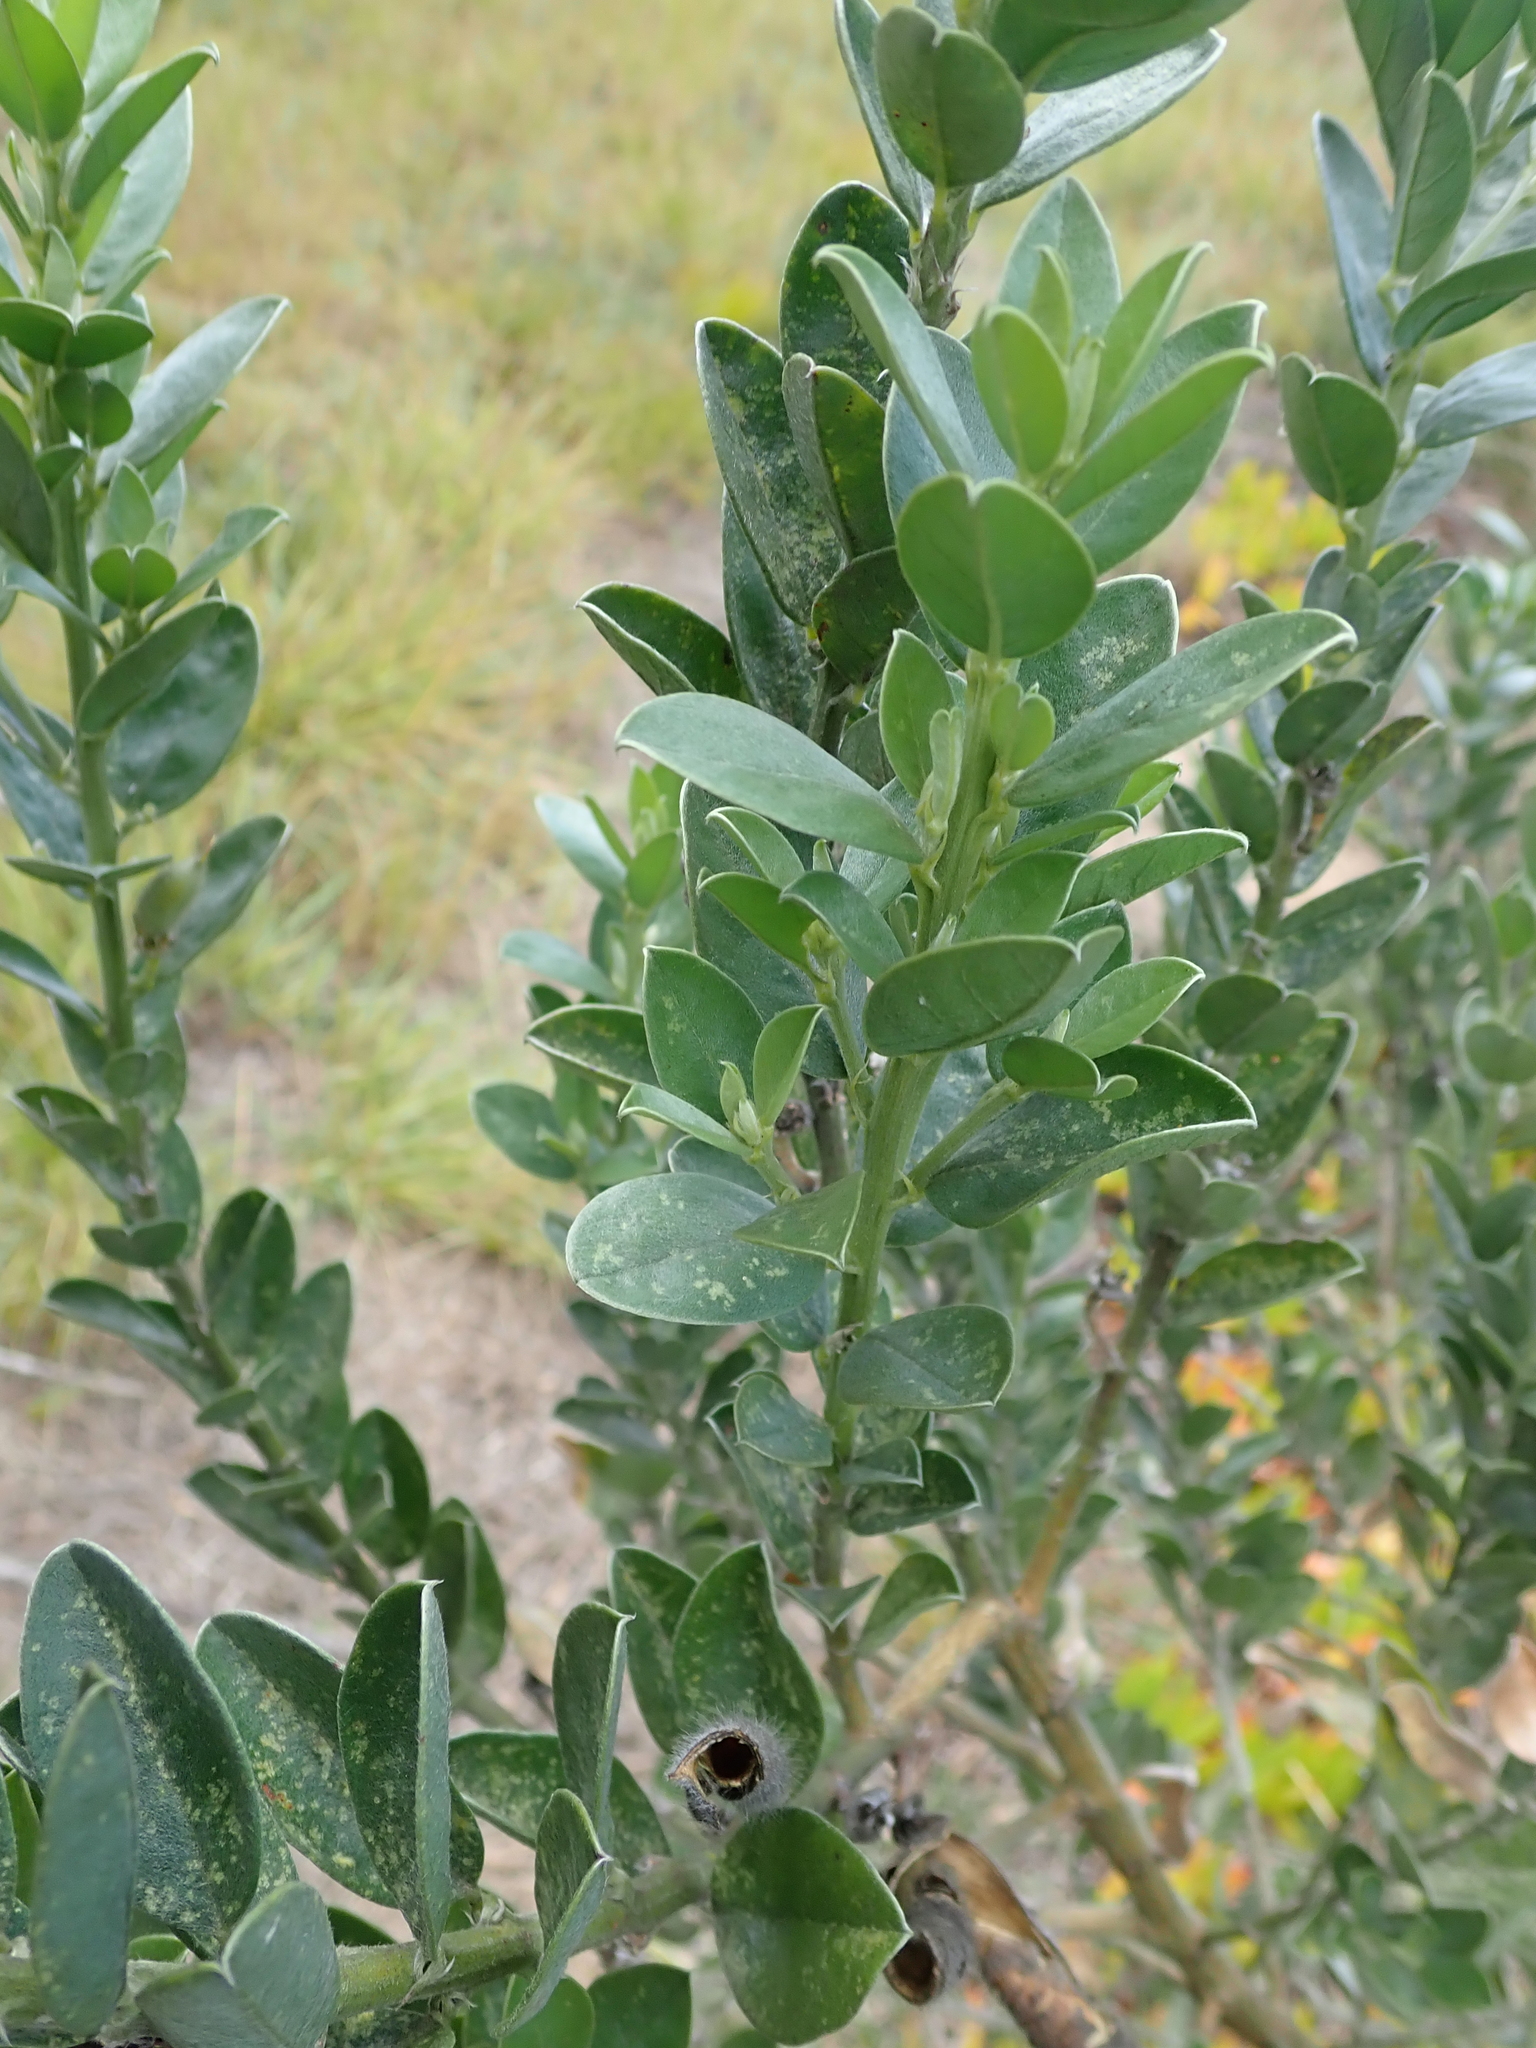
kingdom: Plantae
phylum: Tracheophyta
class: Magnoliopsida
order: Fabales
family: Fabaceae
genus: Podalyria
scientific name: Podalyria myrtillifolia
